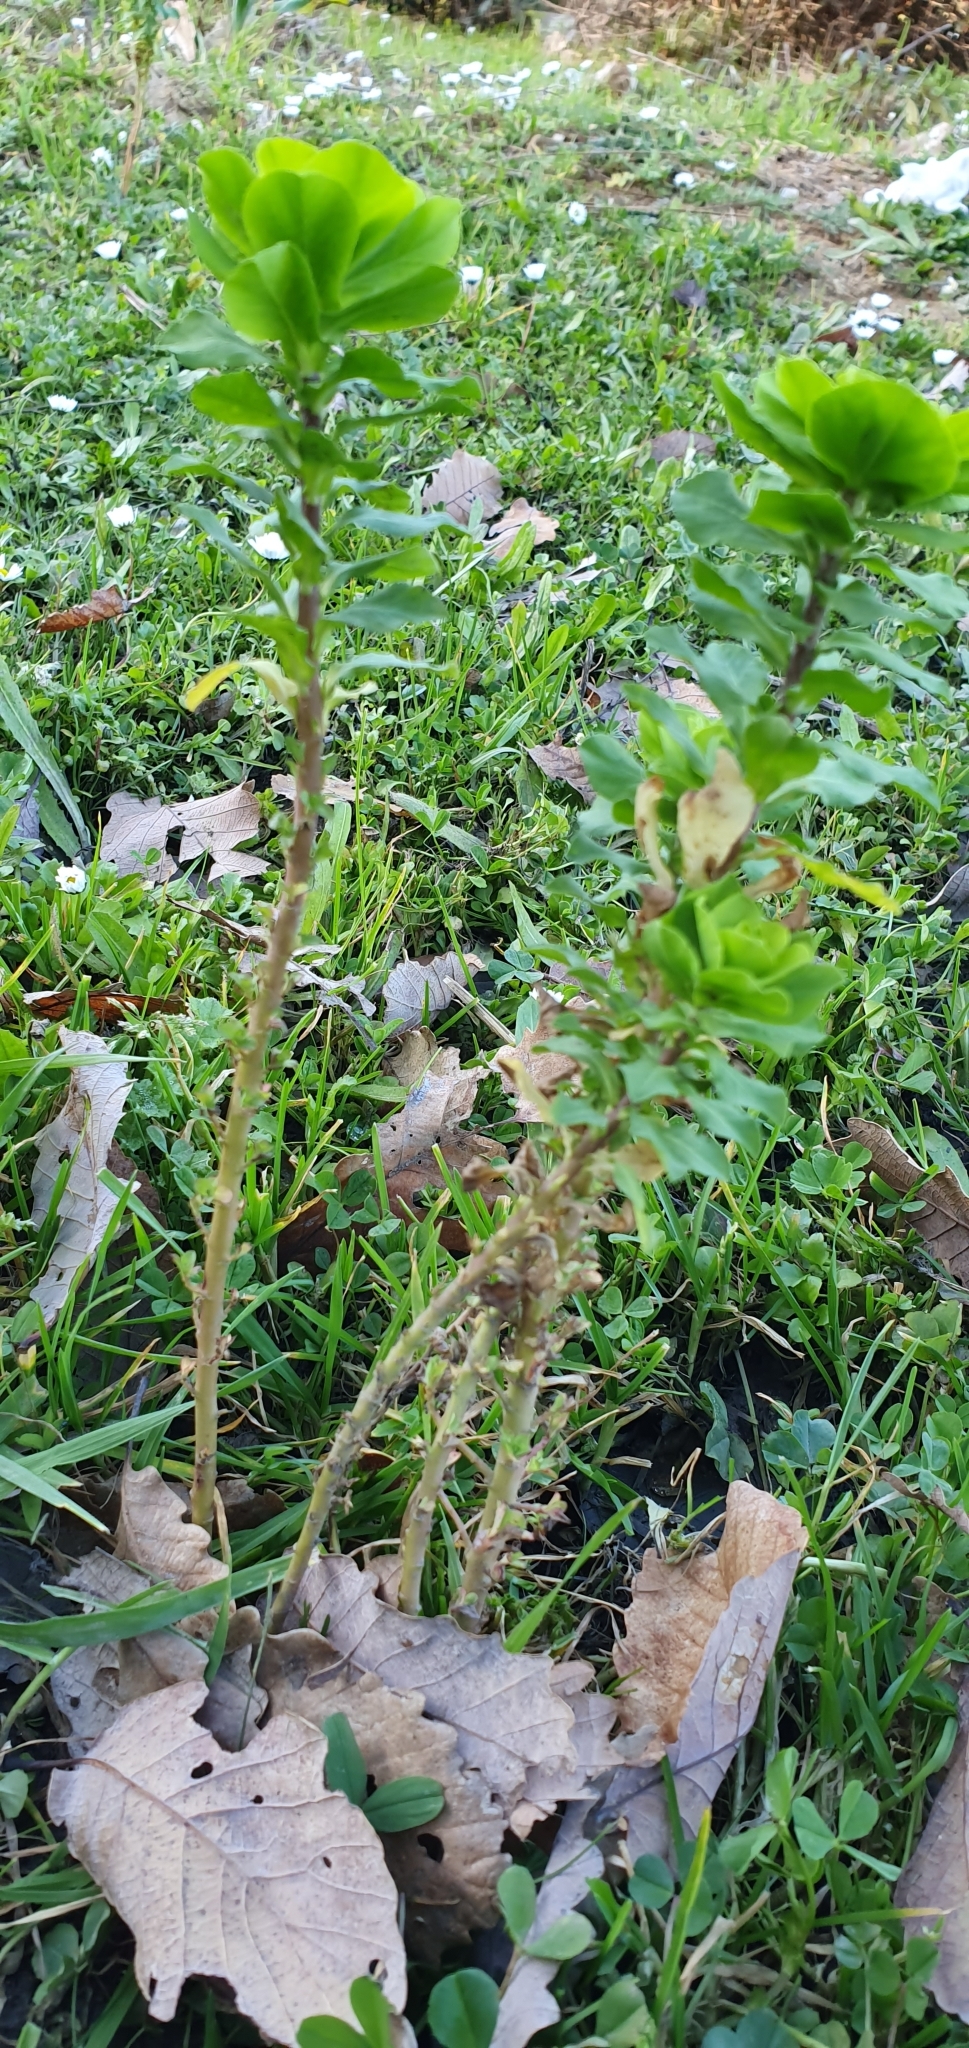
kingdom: Plantae
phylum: Tracheophyta
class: Magnoliopsida
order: Malpighiales
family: Euphorbiaceae
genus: Euphorbia
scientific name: Euphorbia helioscopia
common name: Sun spurge
